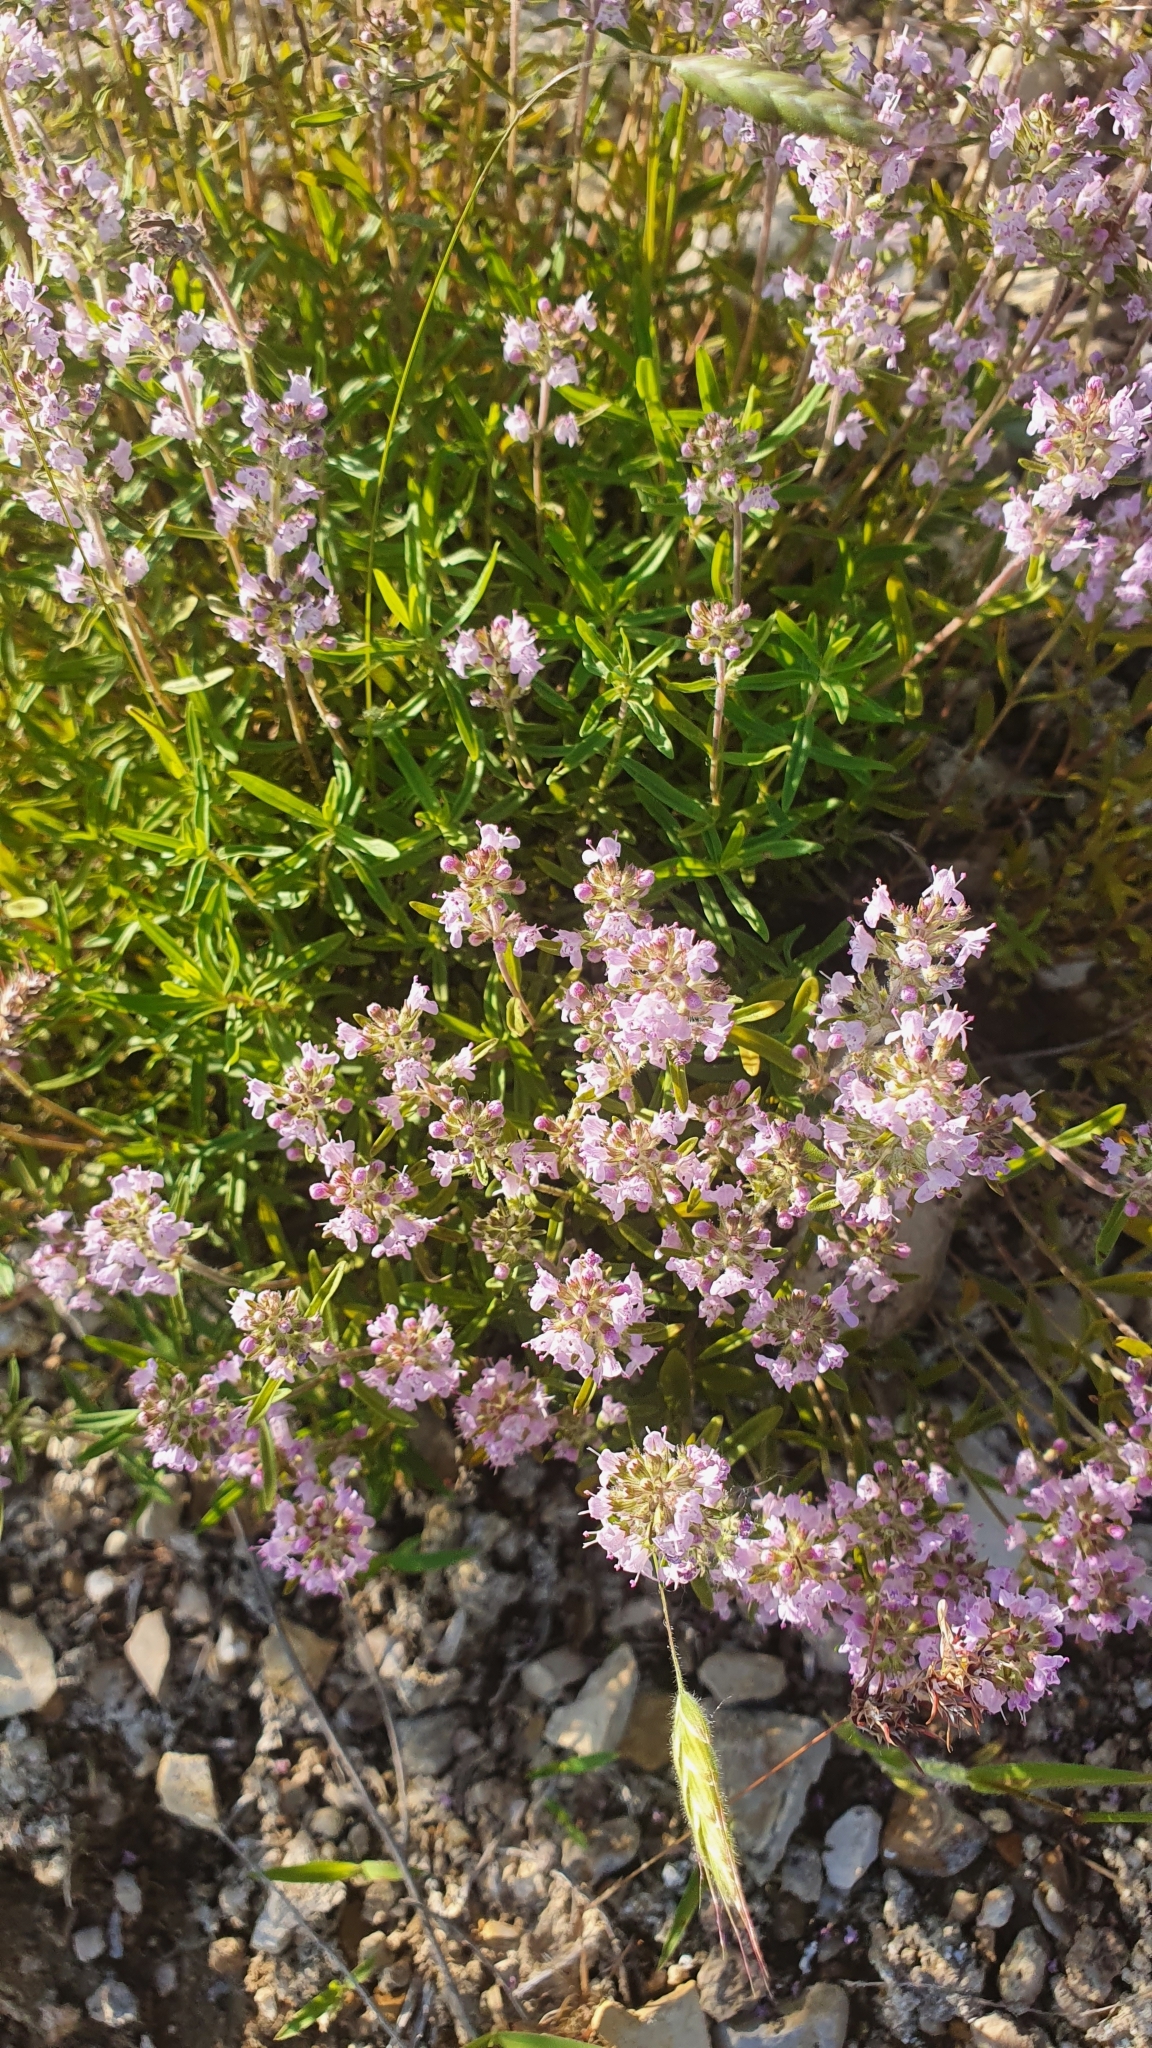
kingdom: Plantae
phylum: Tracheophyta
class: Magnoliopsida
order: Lamiales
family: Lamiaceae
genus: Thymus
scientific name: Thymus pannonicus
